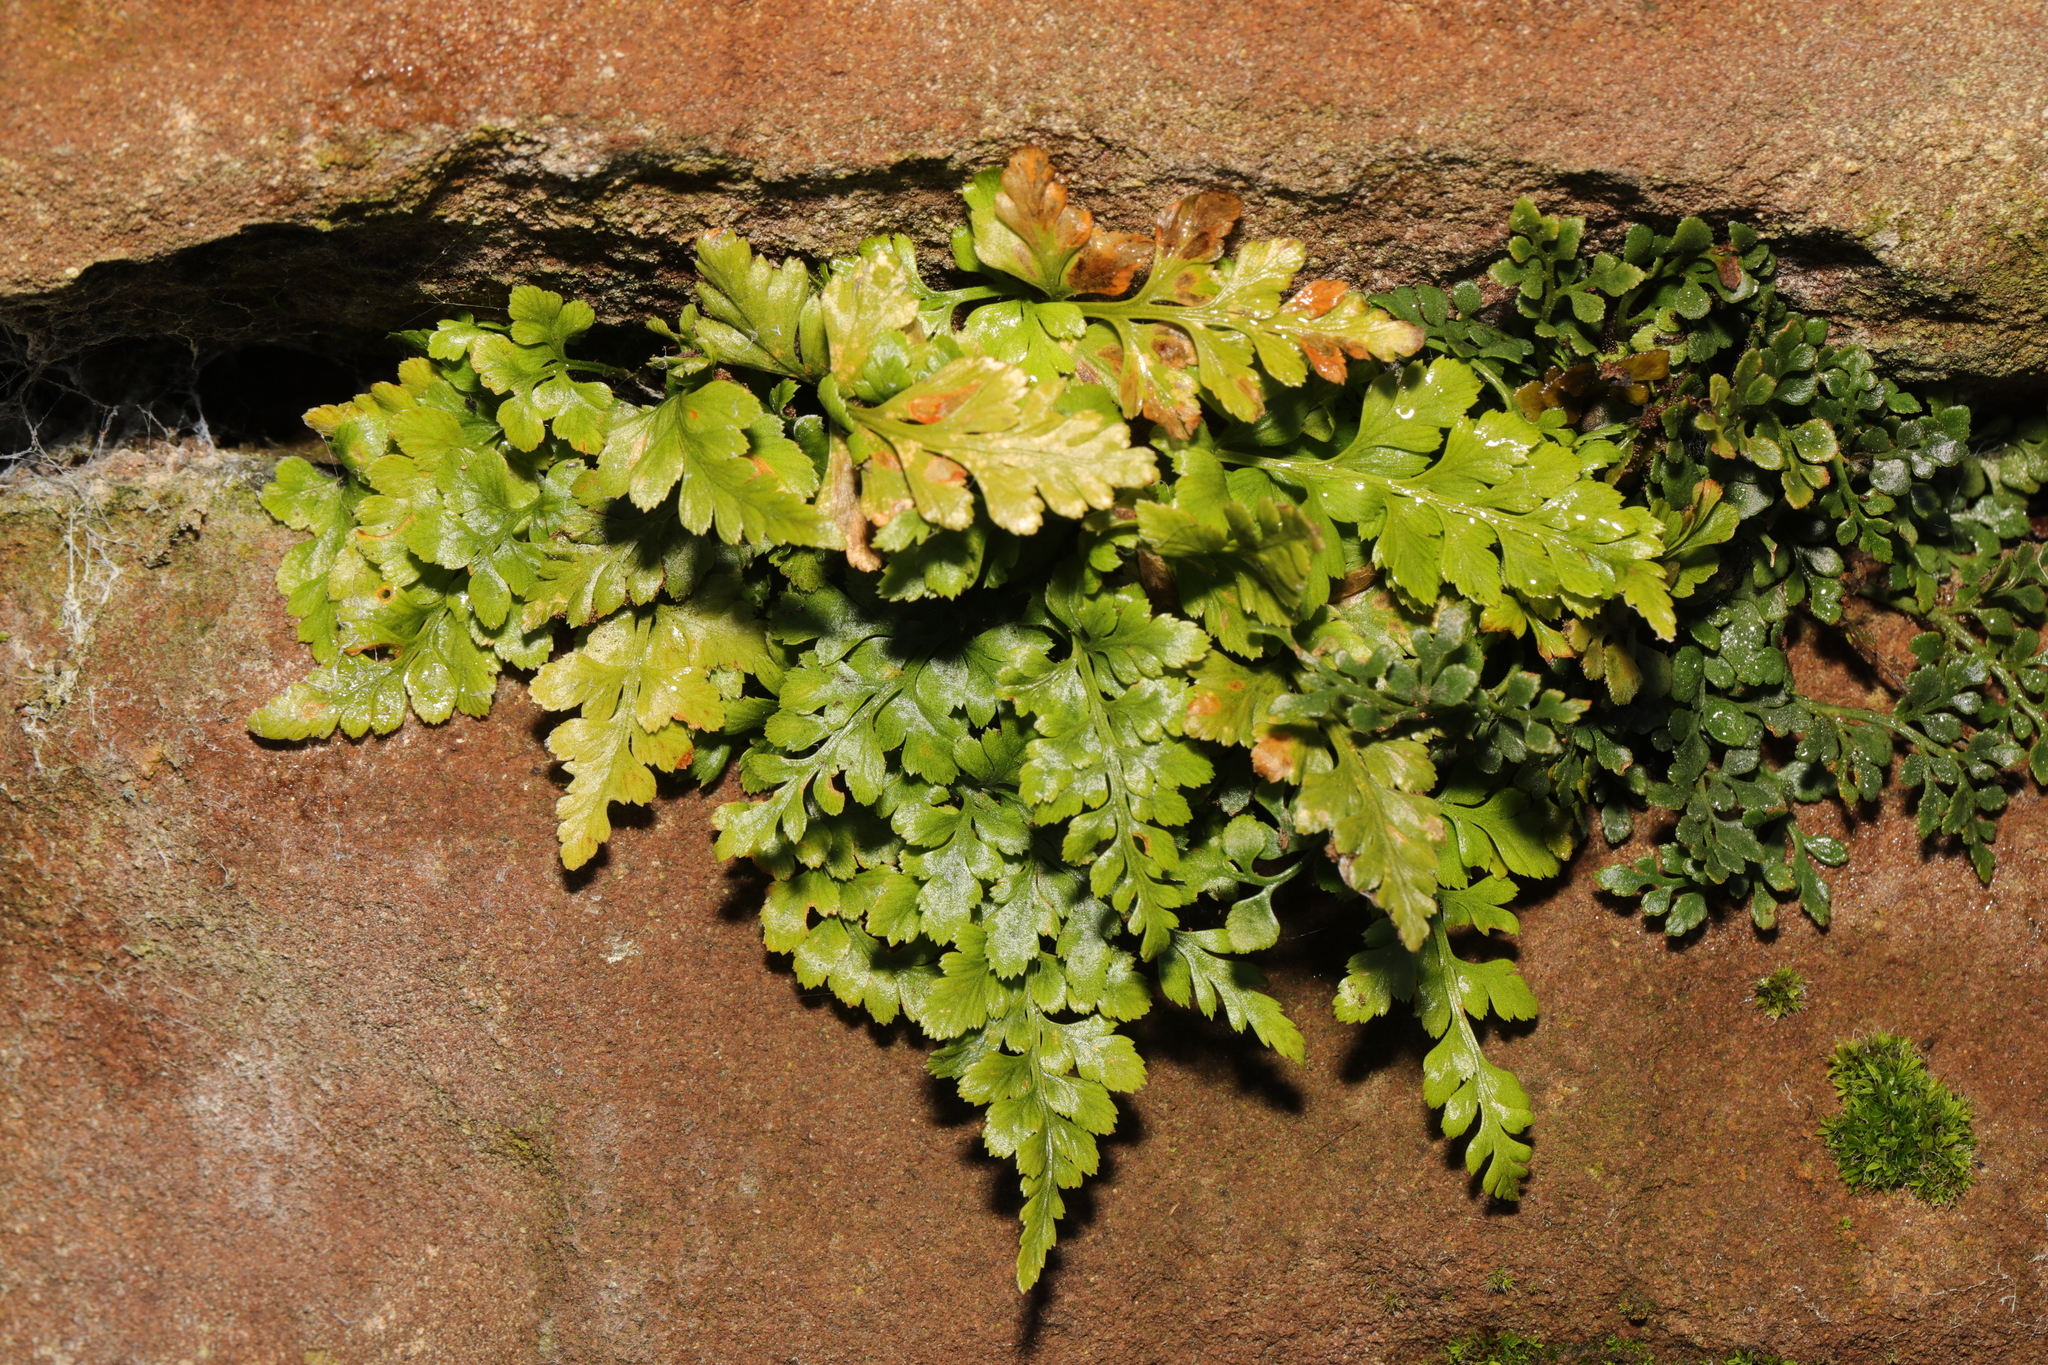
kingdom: Plantae
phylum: Tracheophyta
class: Polypodiopsida
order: Polypodiales
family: Aspleniaceae
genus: Asplenium
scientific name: Asplenium adiantum-nigrum
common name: Black spleenwort
